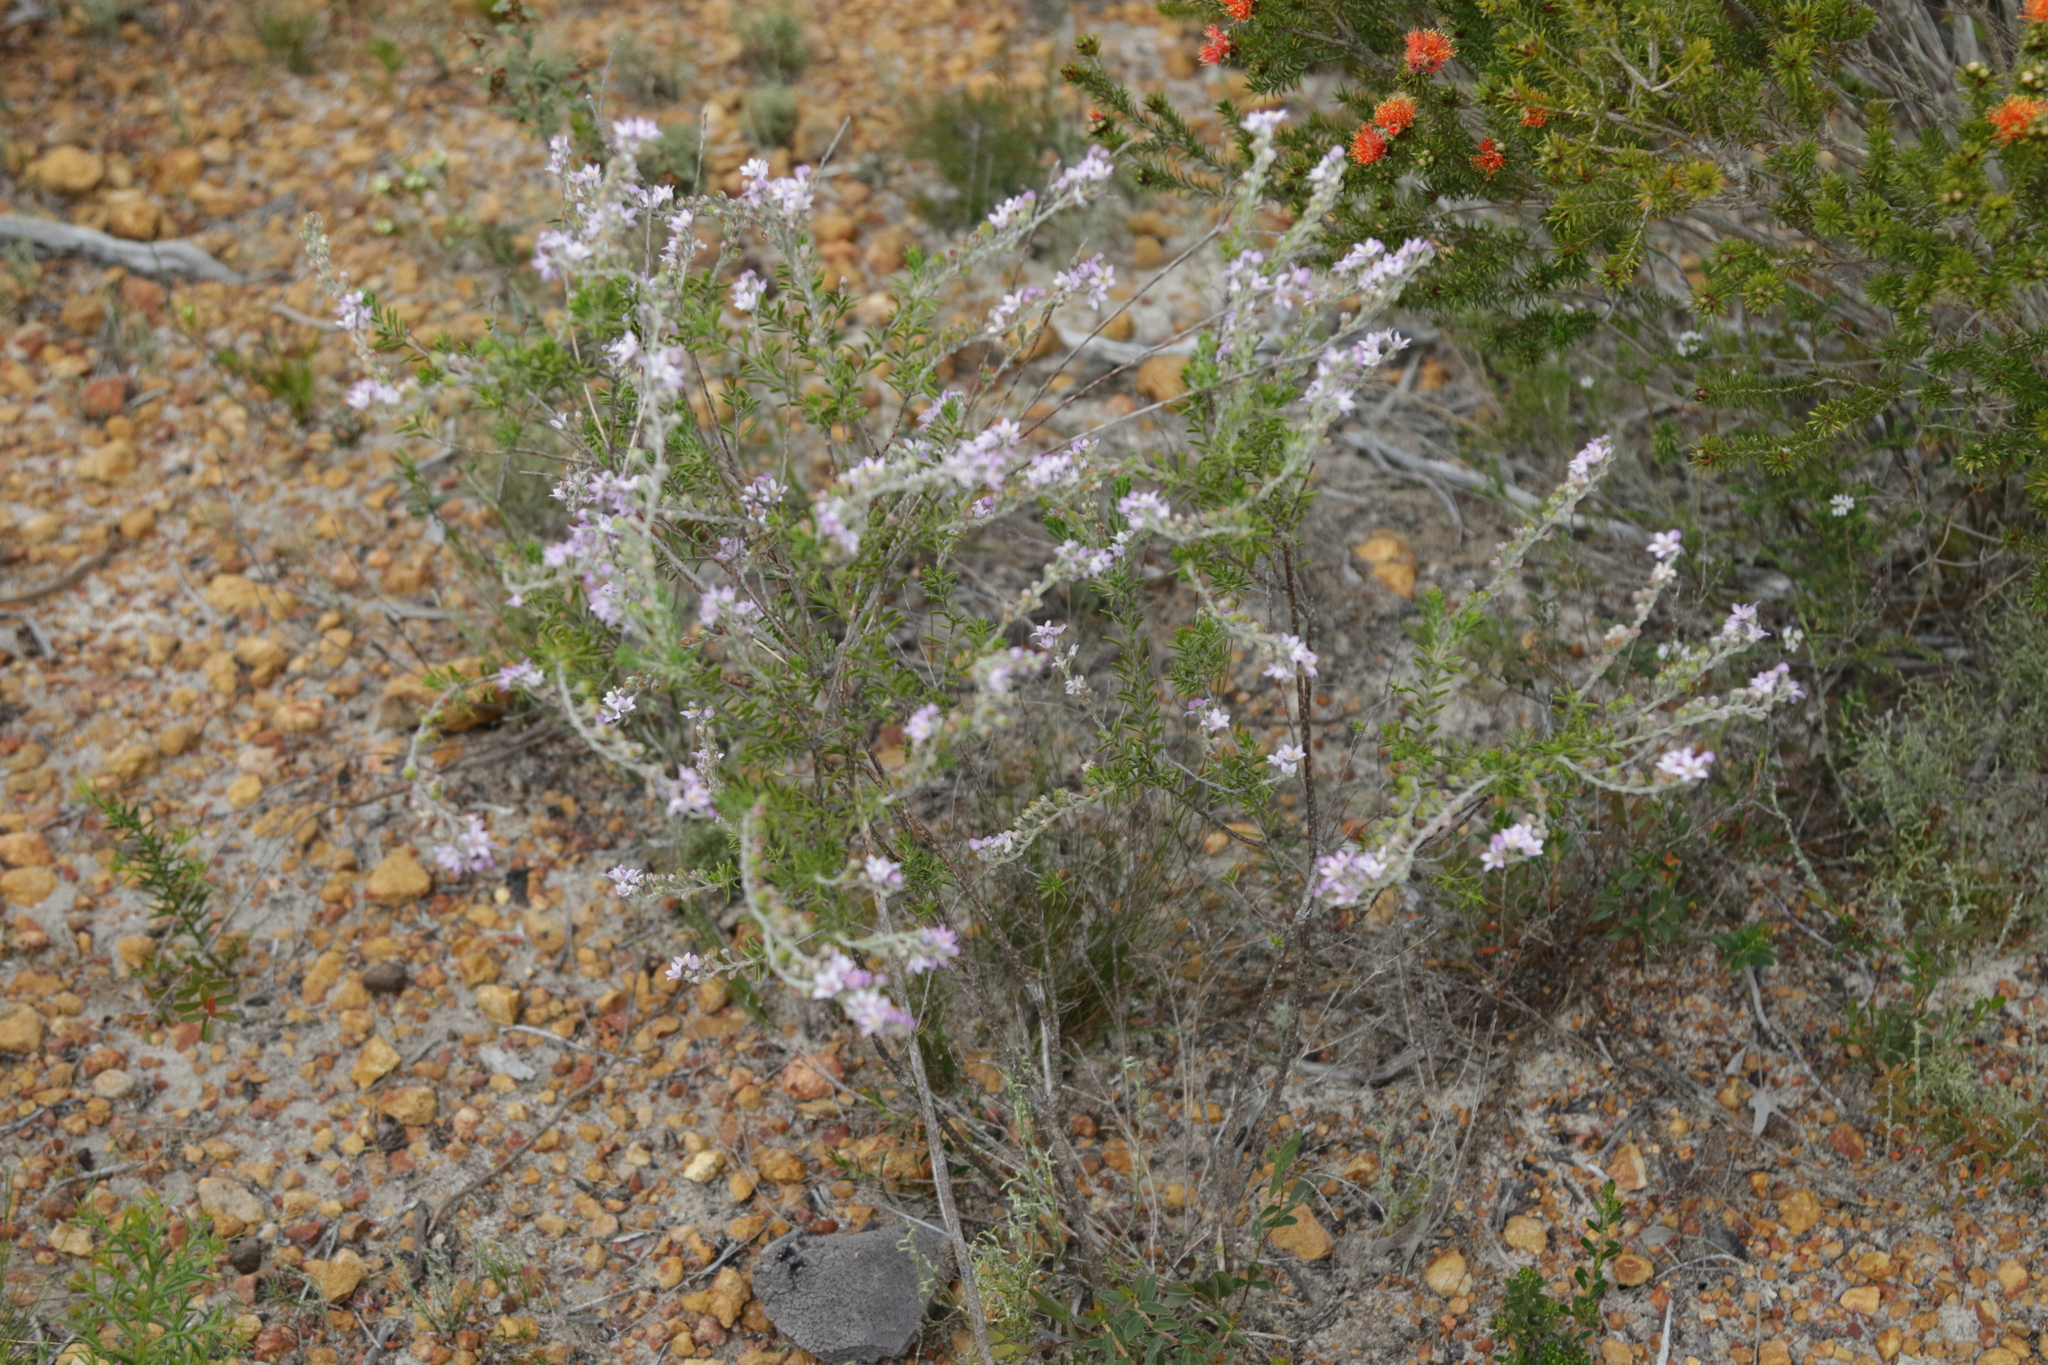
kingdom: Plantae
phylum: Tracheophyta
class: Magnoliopsida
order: Sapindales
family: Rutaceae
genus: Philotheca
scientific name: Philotheca spicata
